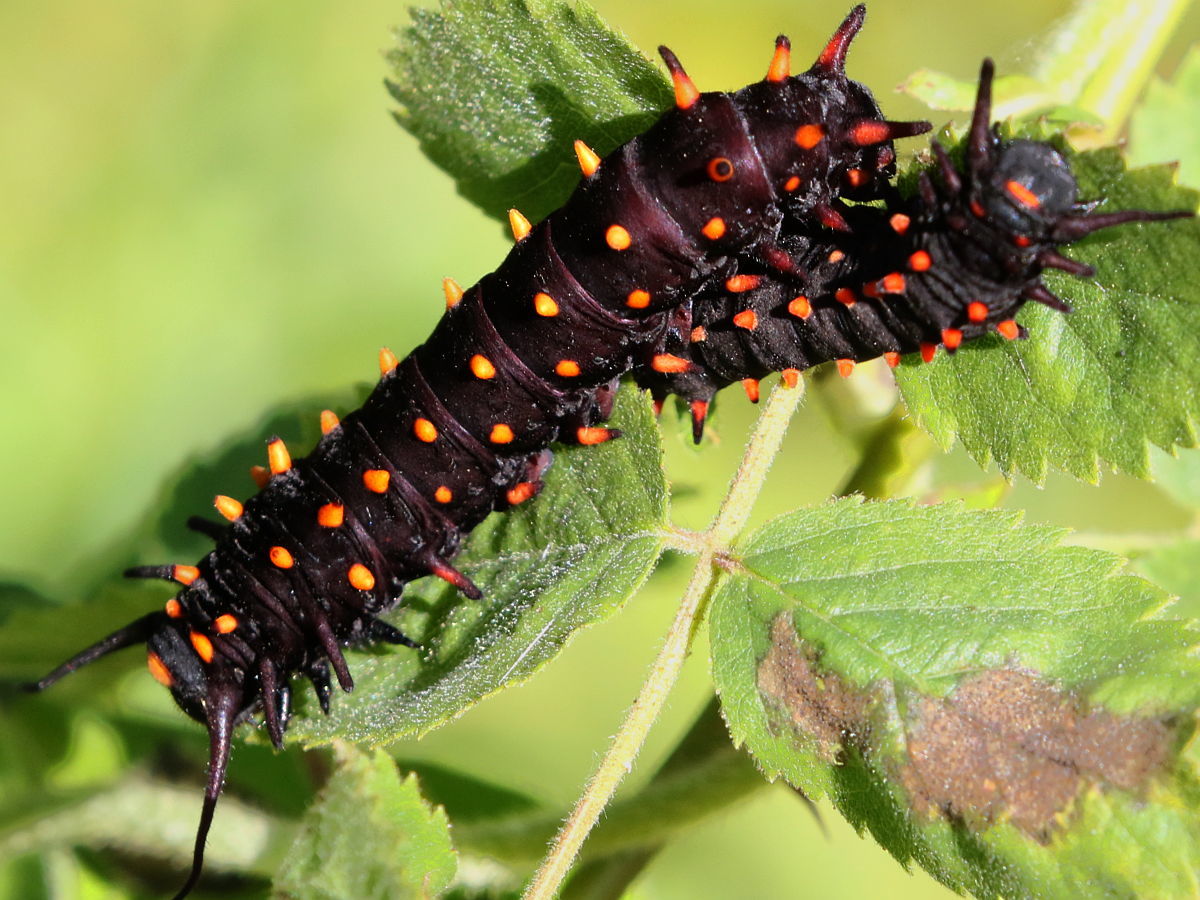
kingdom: Animalia
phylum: Arthropoda
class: Insecta
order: Lepidoptera
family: Papilionidae
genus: Battus
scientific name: Battus philenor
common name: Pipevine swallowtail
